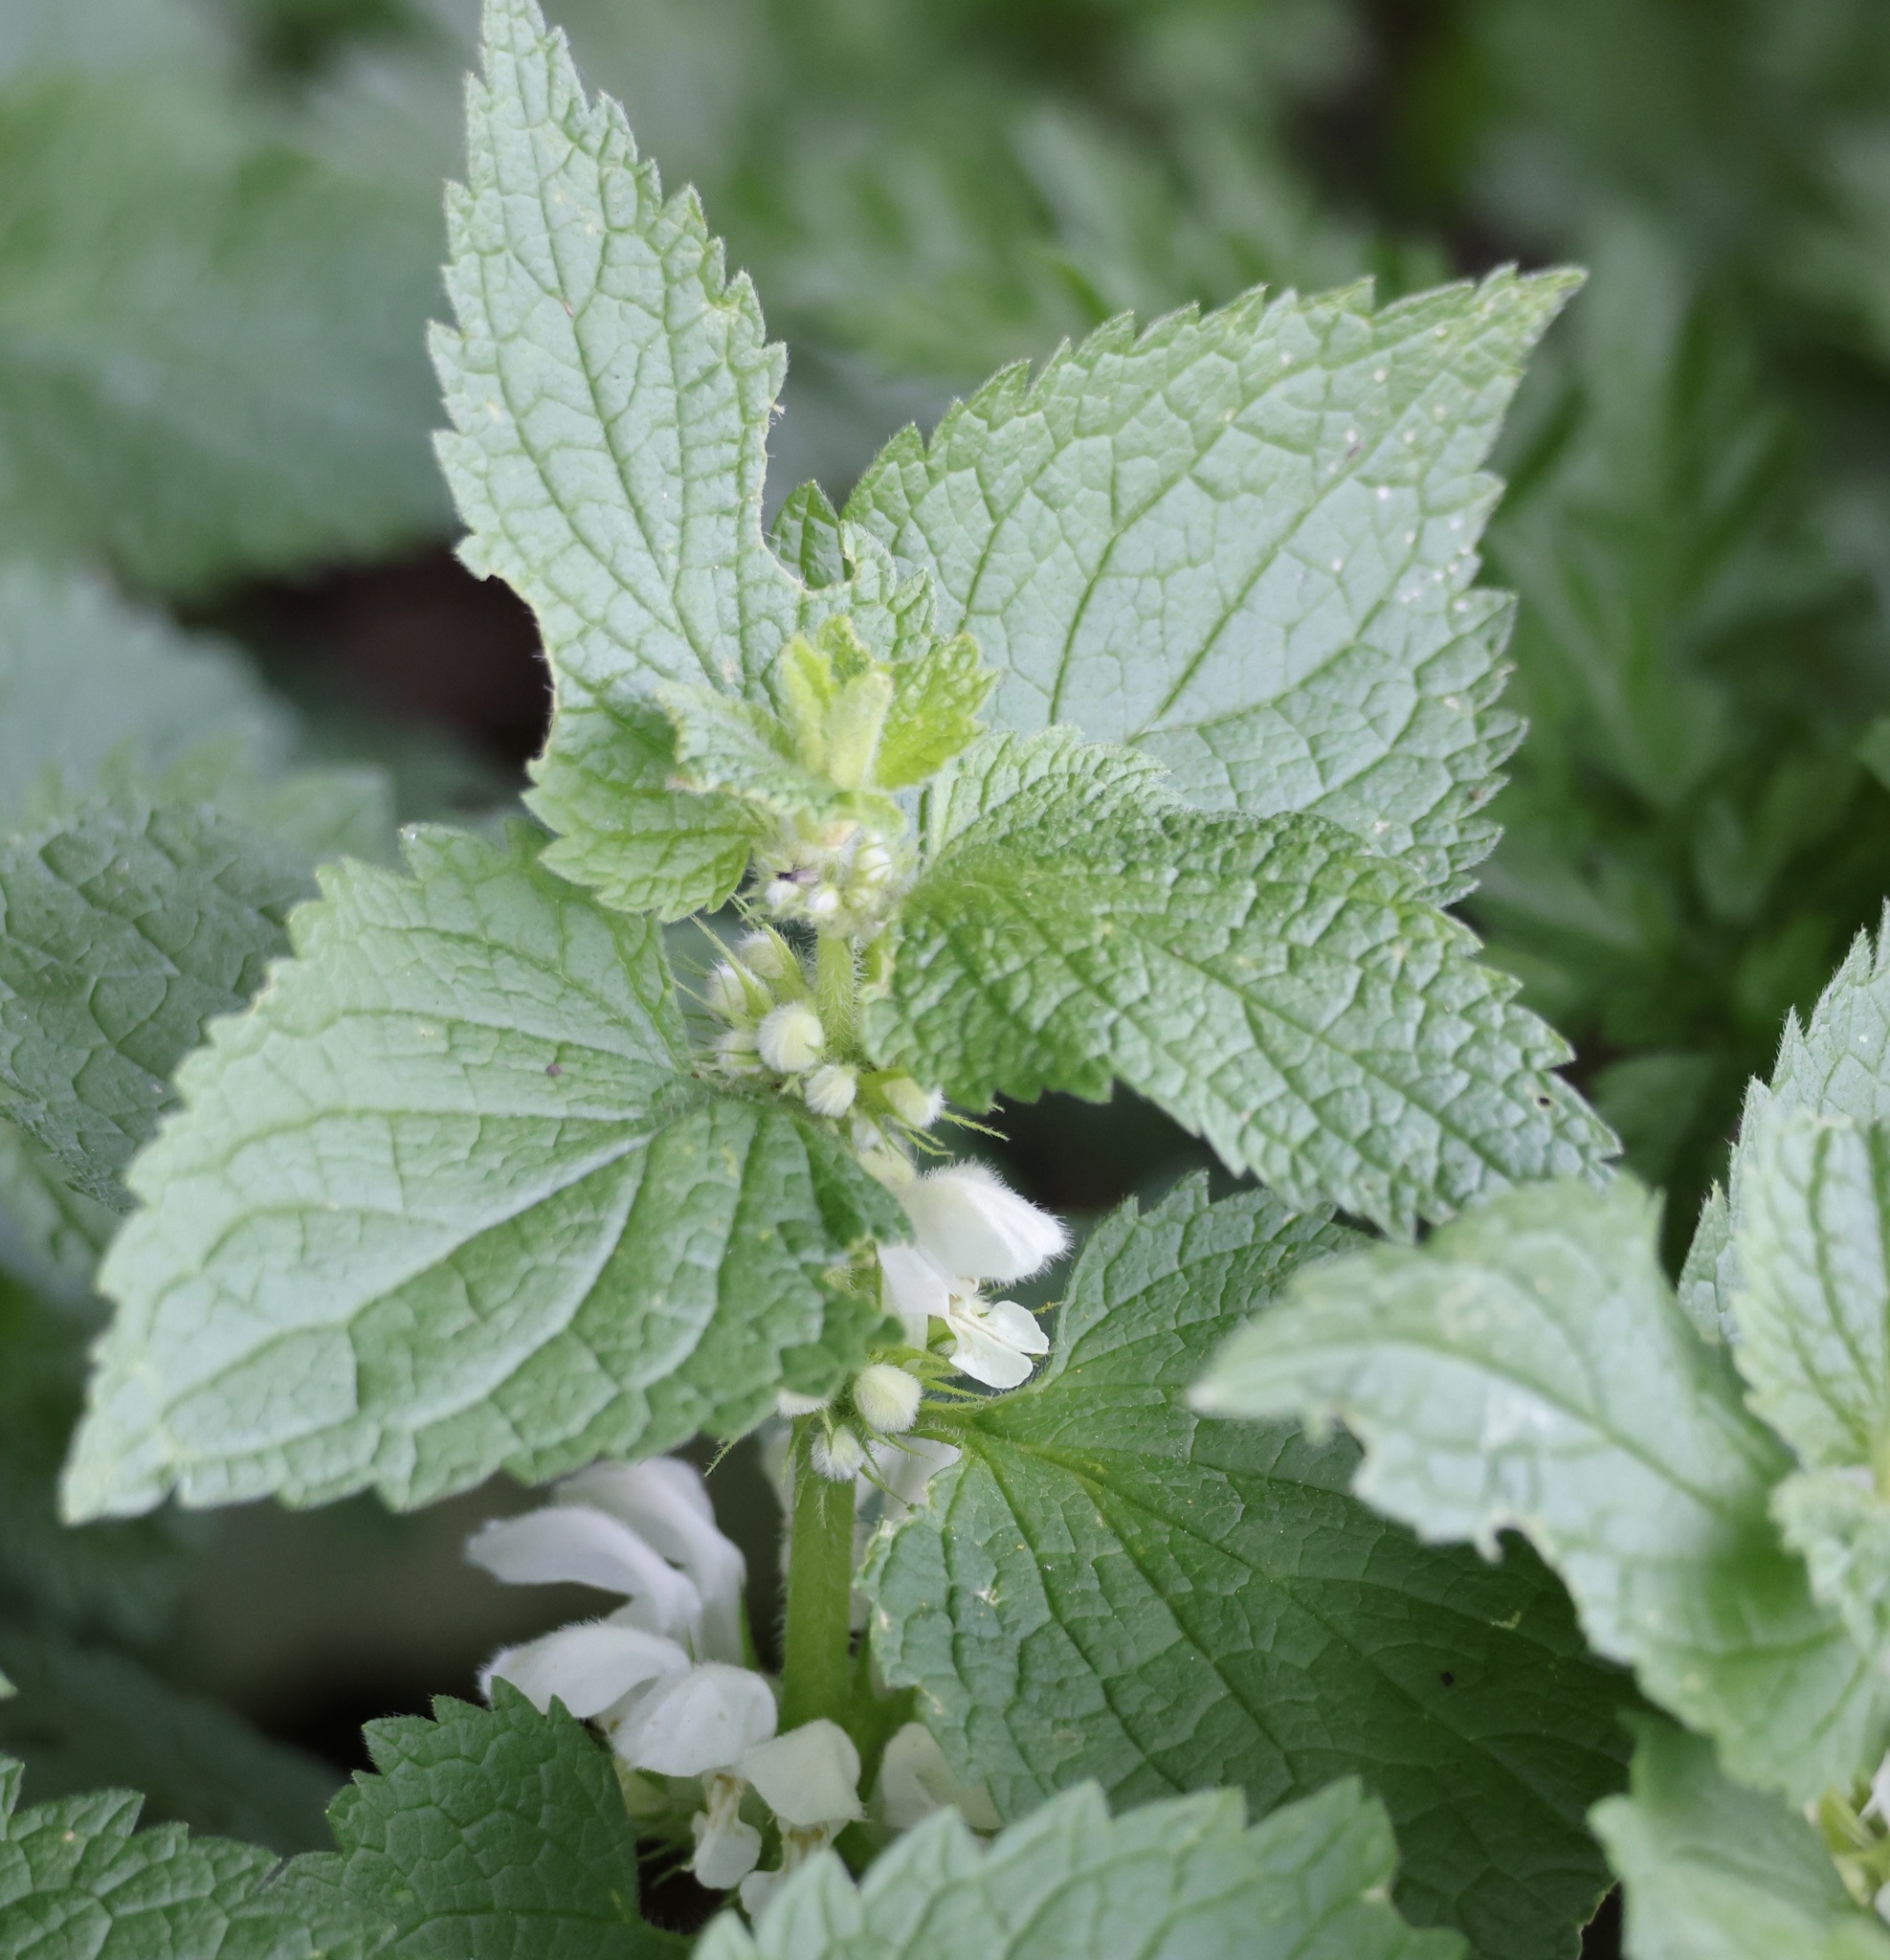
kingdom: Plantae
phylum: Tracheophyta
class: Magnoliopsida
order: Lamiales
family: Lamiaceae
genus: Lamium
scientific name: Lamium album
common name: White dead-nettle
